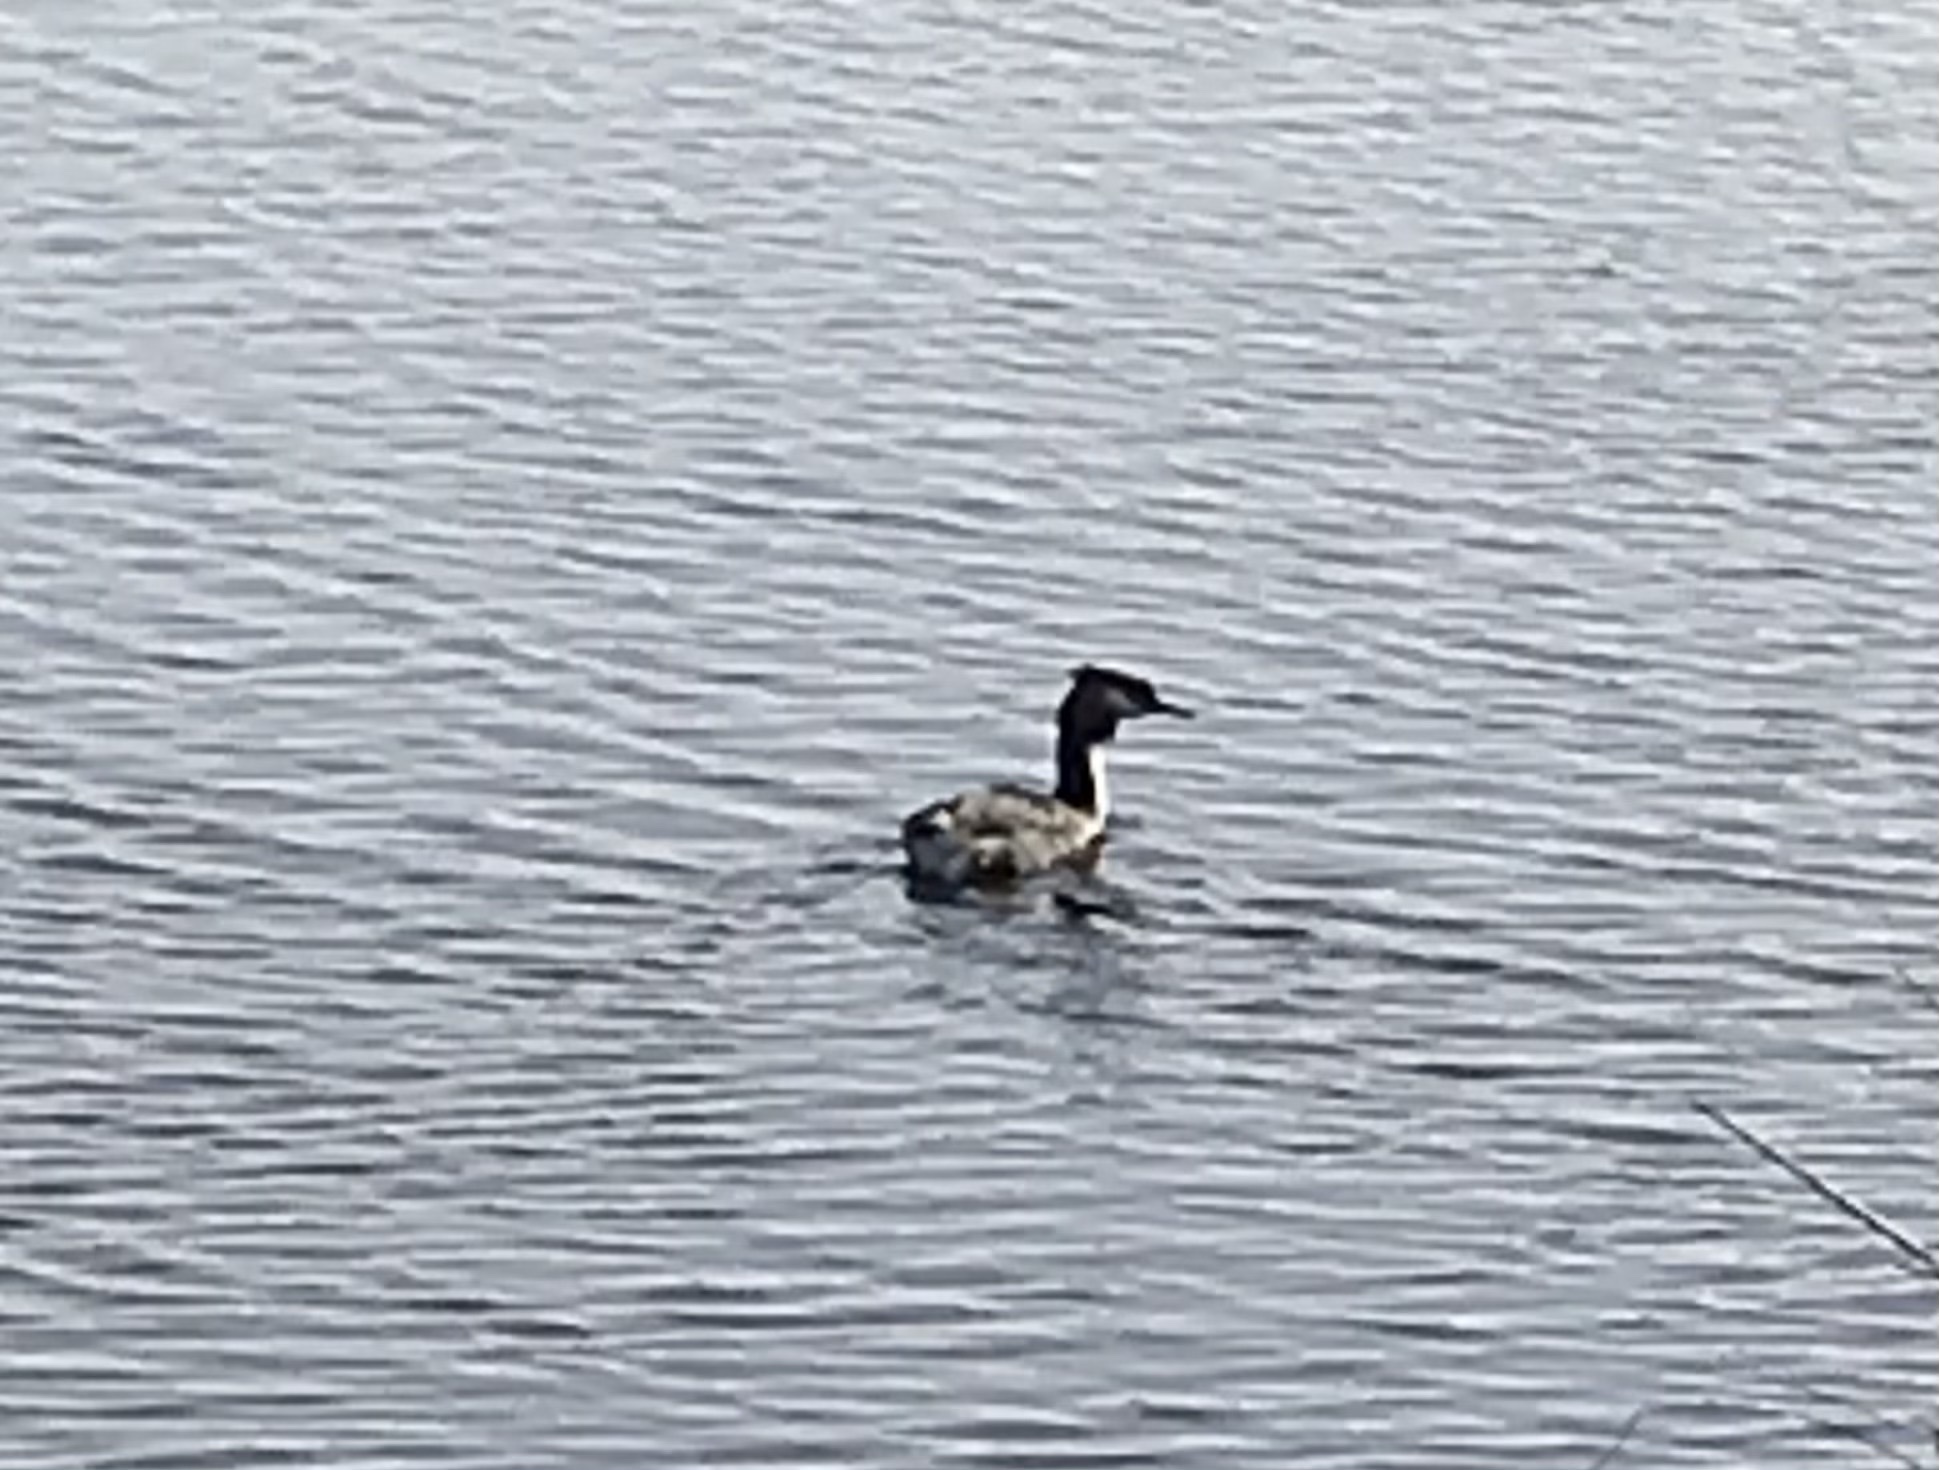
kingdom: Animalia
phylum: Chordata
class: Aves
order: Podicipediformes
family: Podicipedidae
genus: Podiceps
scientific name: Podiceps cristatus
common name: Great crested grebe
